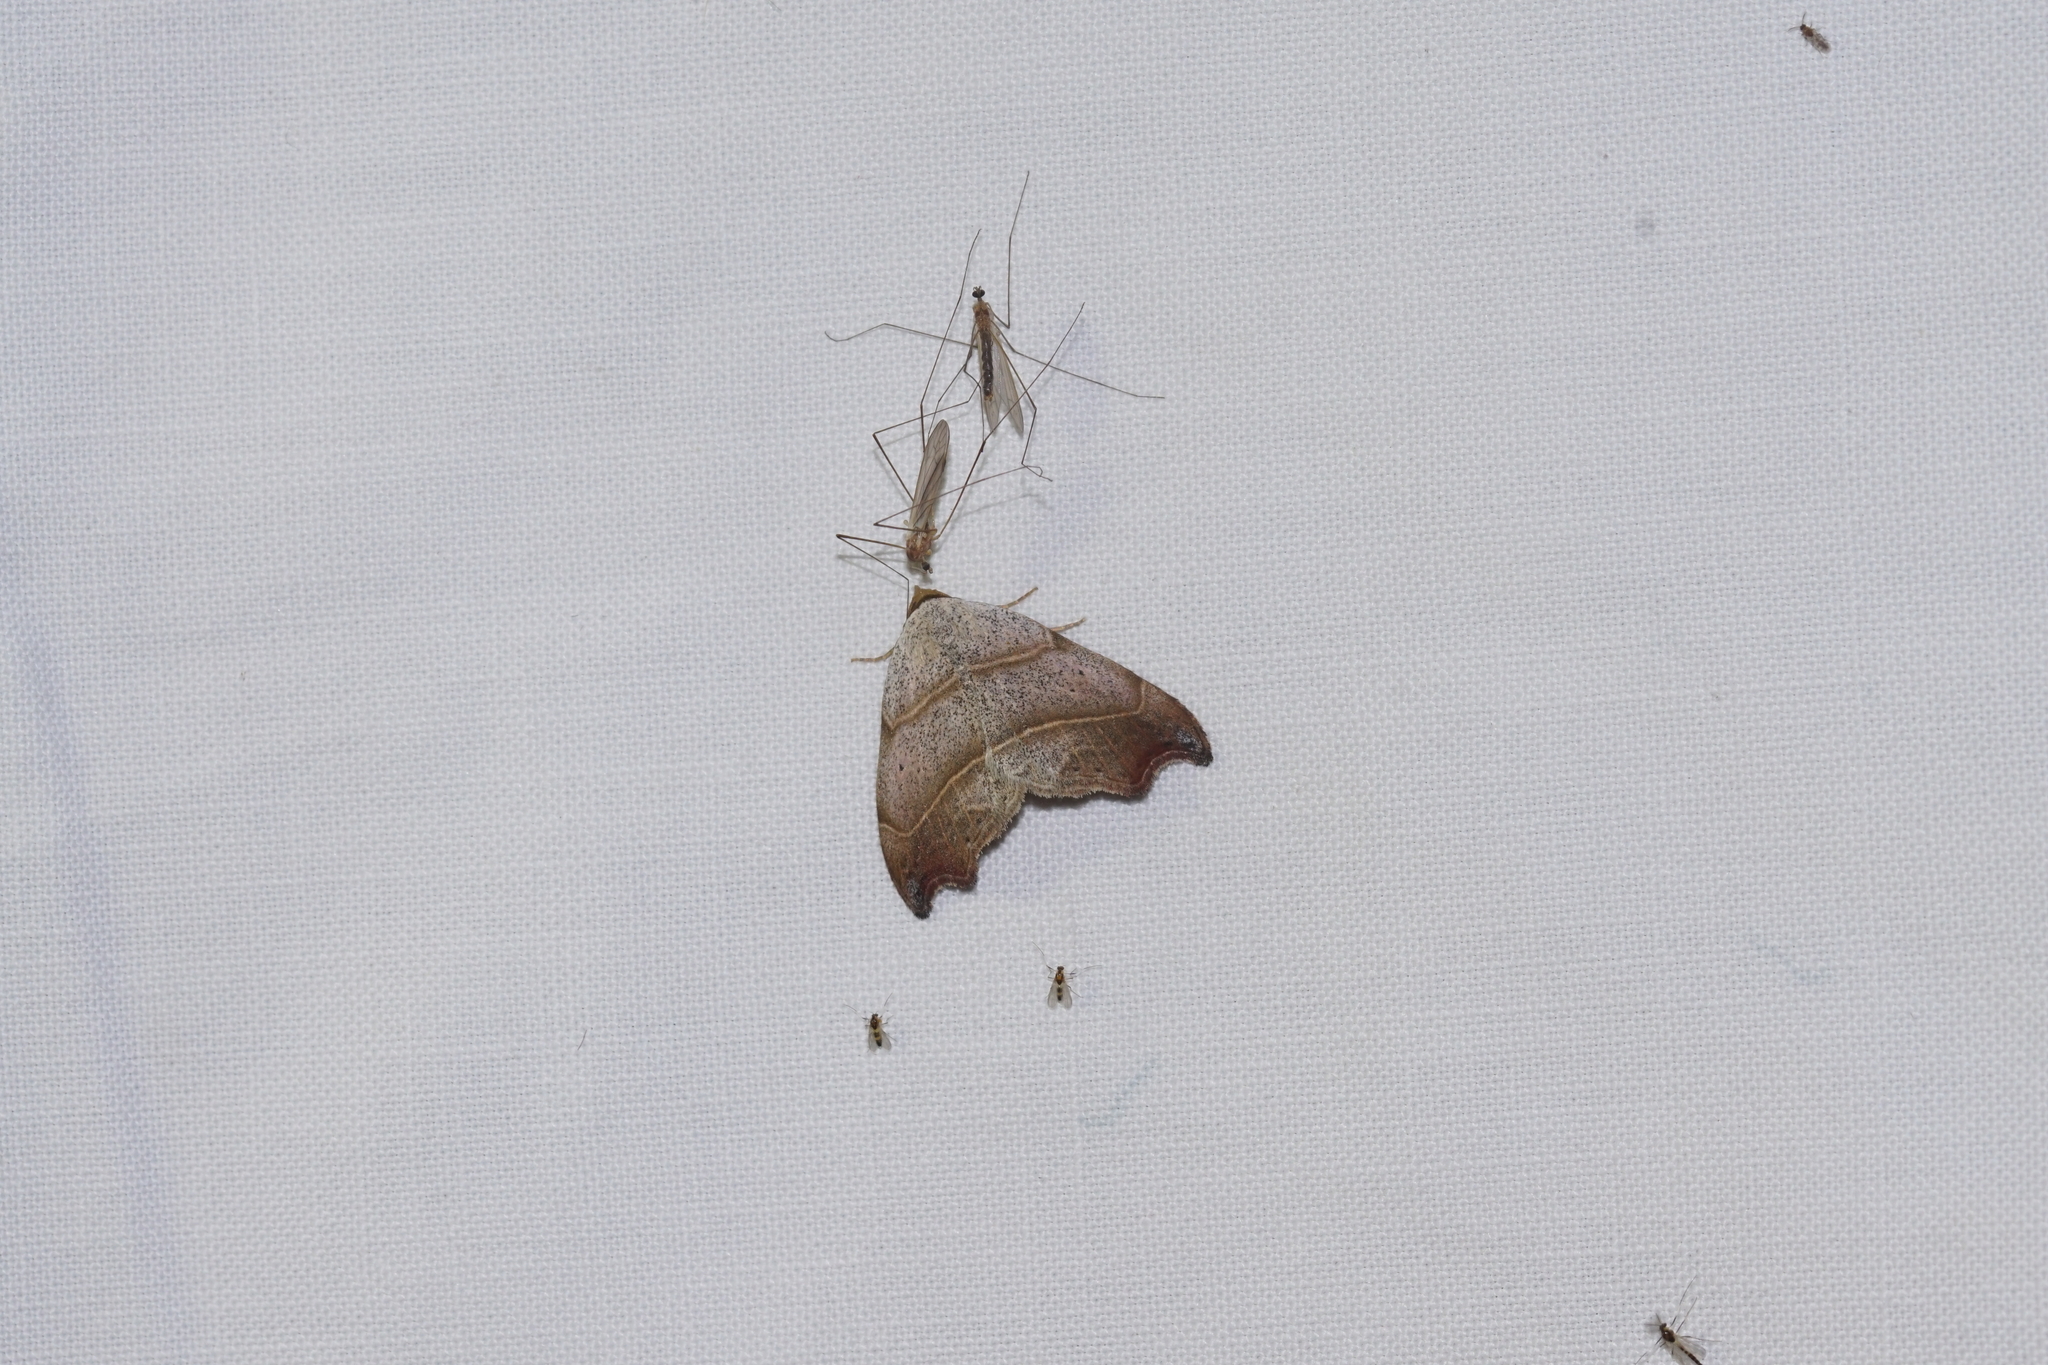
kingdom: Animalia
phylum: Arthropoda
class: Insecta
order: Lepidoptera
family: Erebidae
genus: Laspeyria
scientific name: Laspeyria flexula
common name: Beautiful hook-tip
